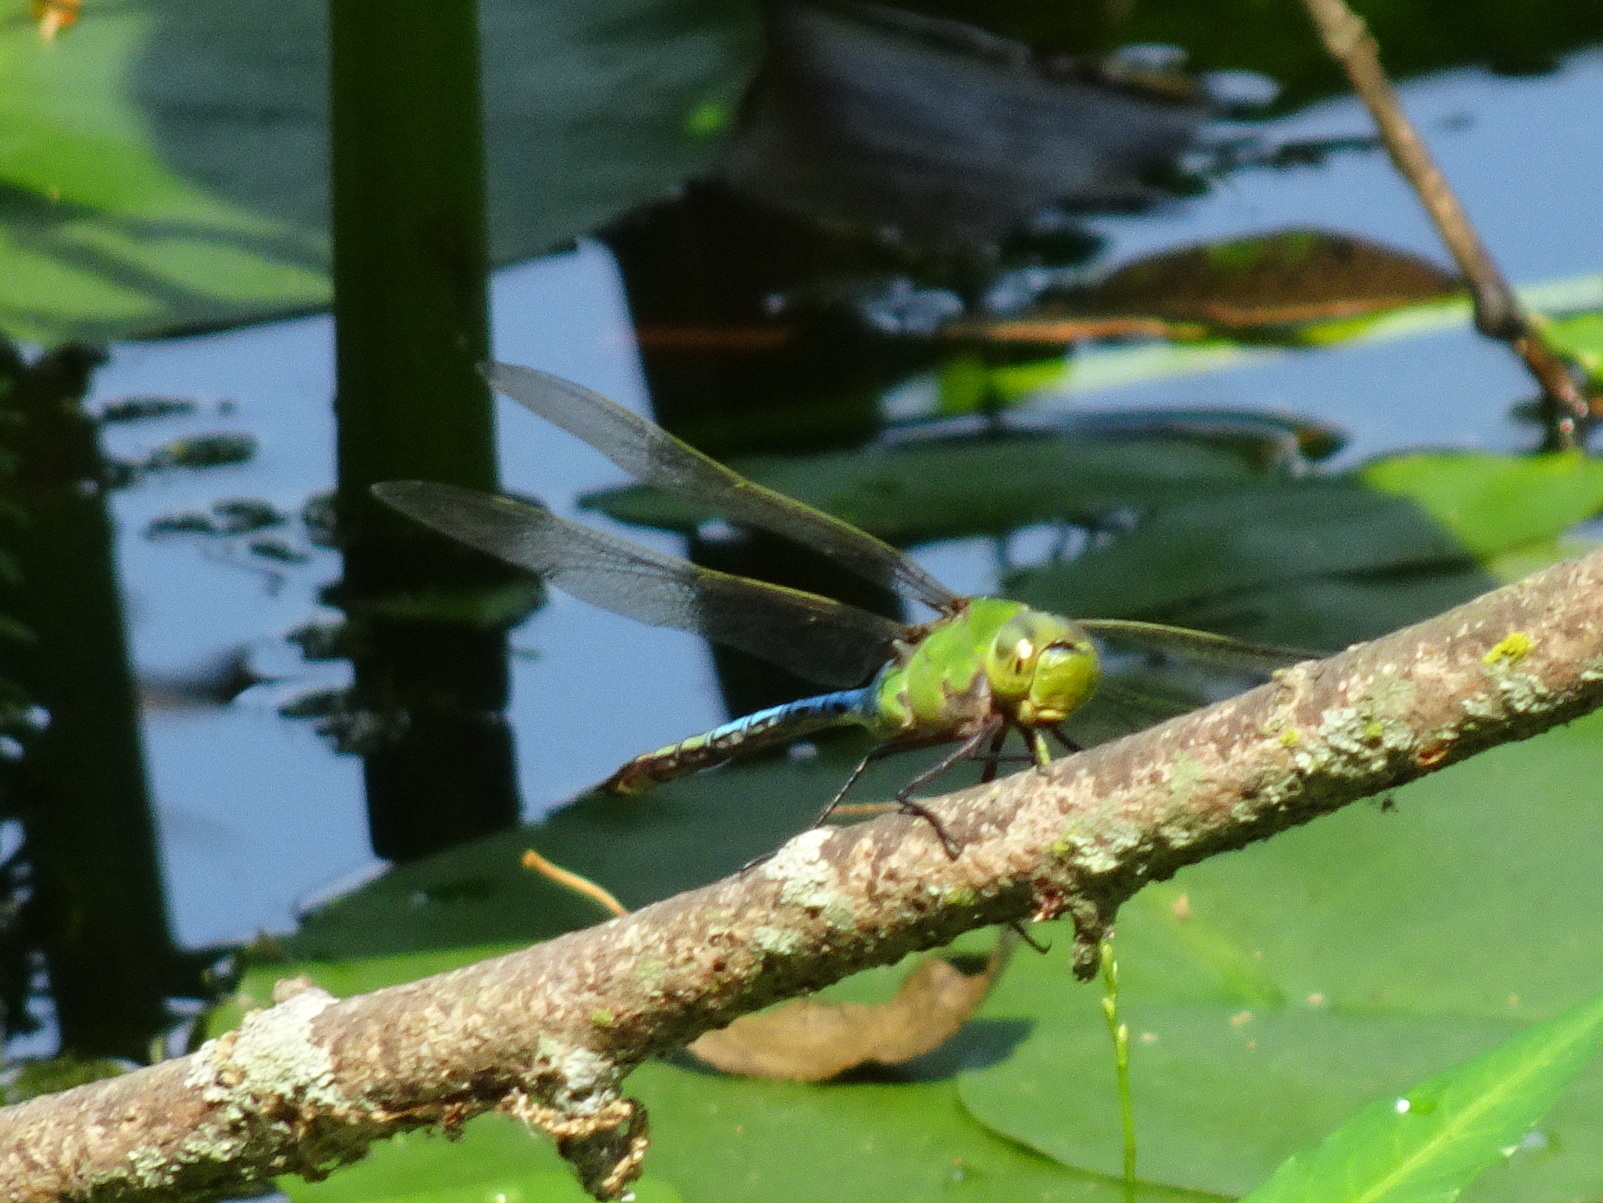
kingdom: Animalia
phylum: Arthropoda
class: Insecta
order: Odonata
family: Aeshnidae
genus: Anax
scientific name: Anax junius
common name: Common green darner
